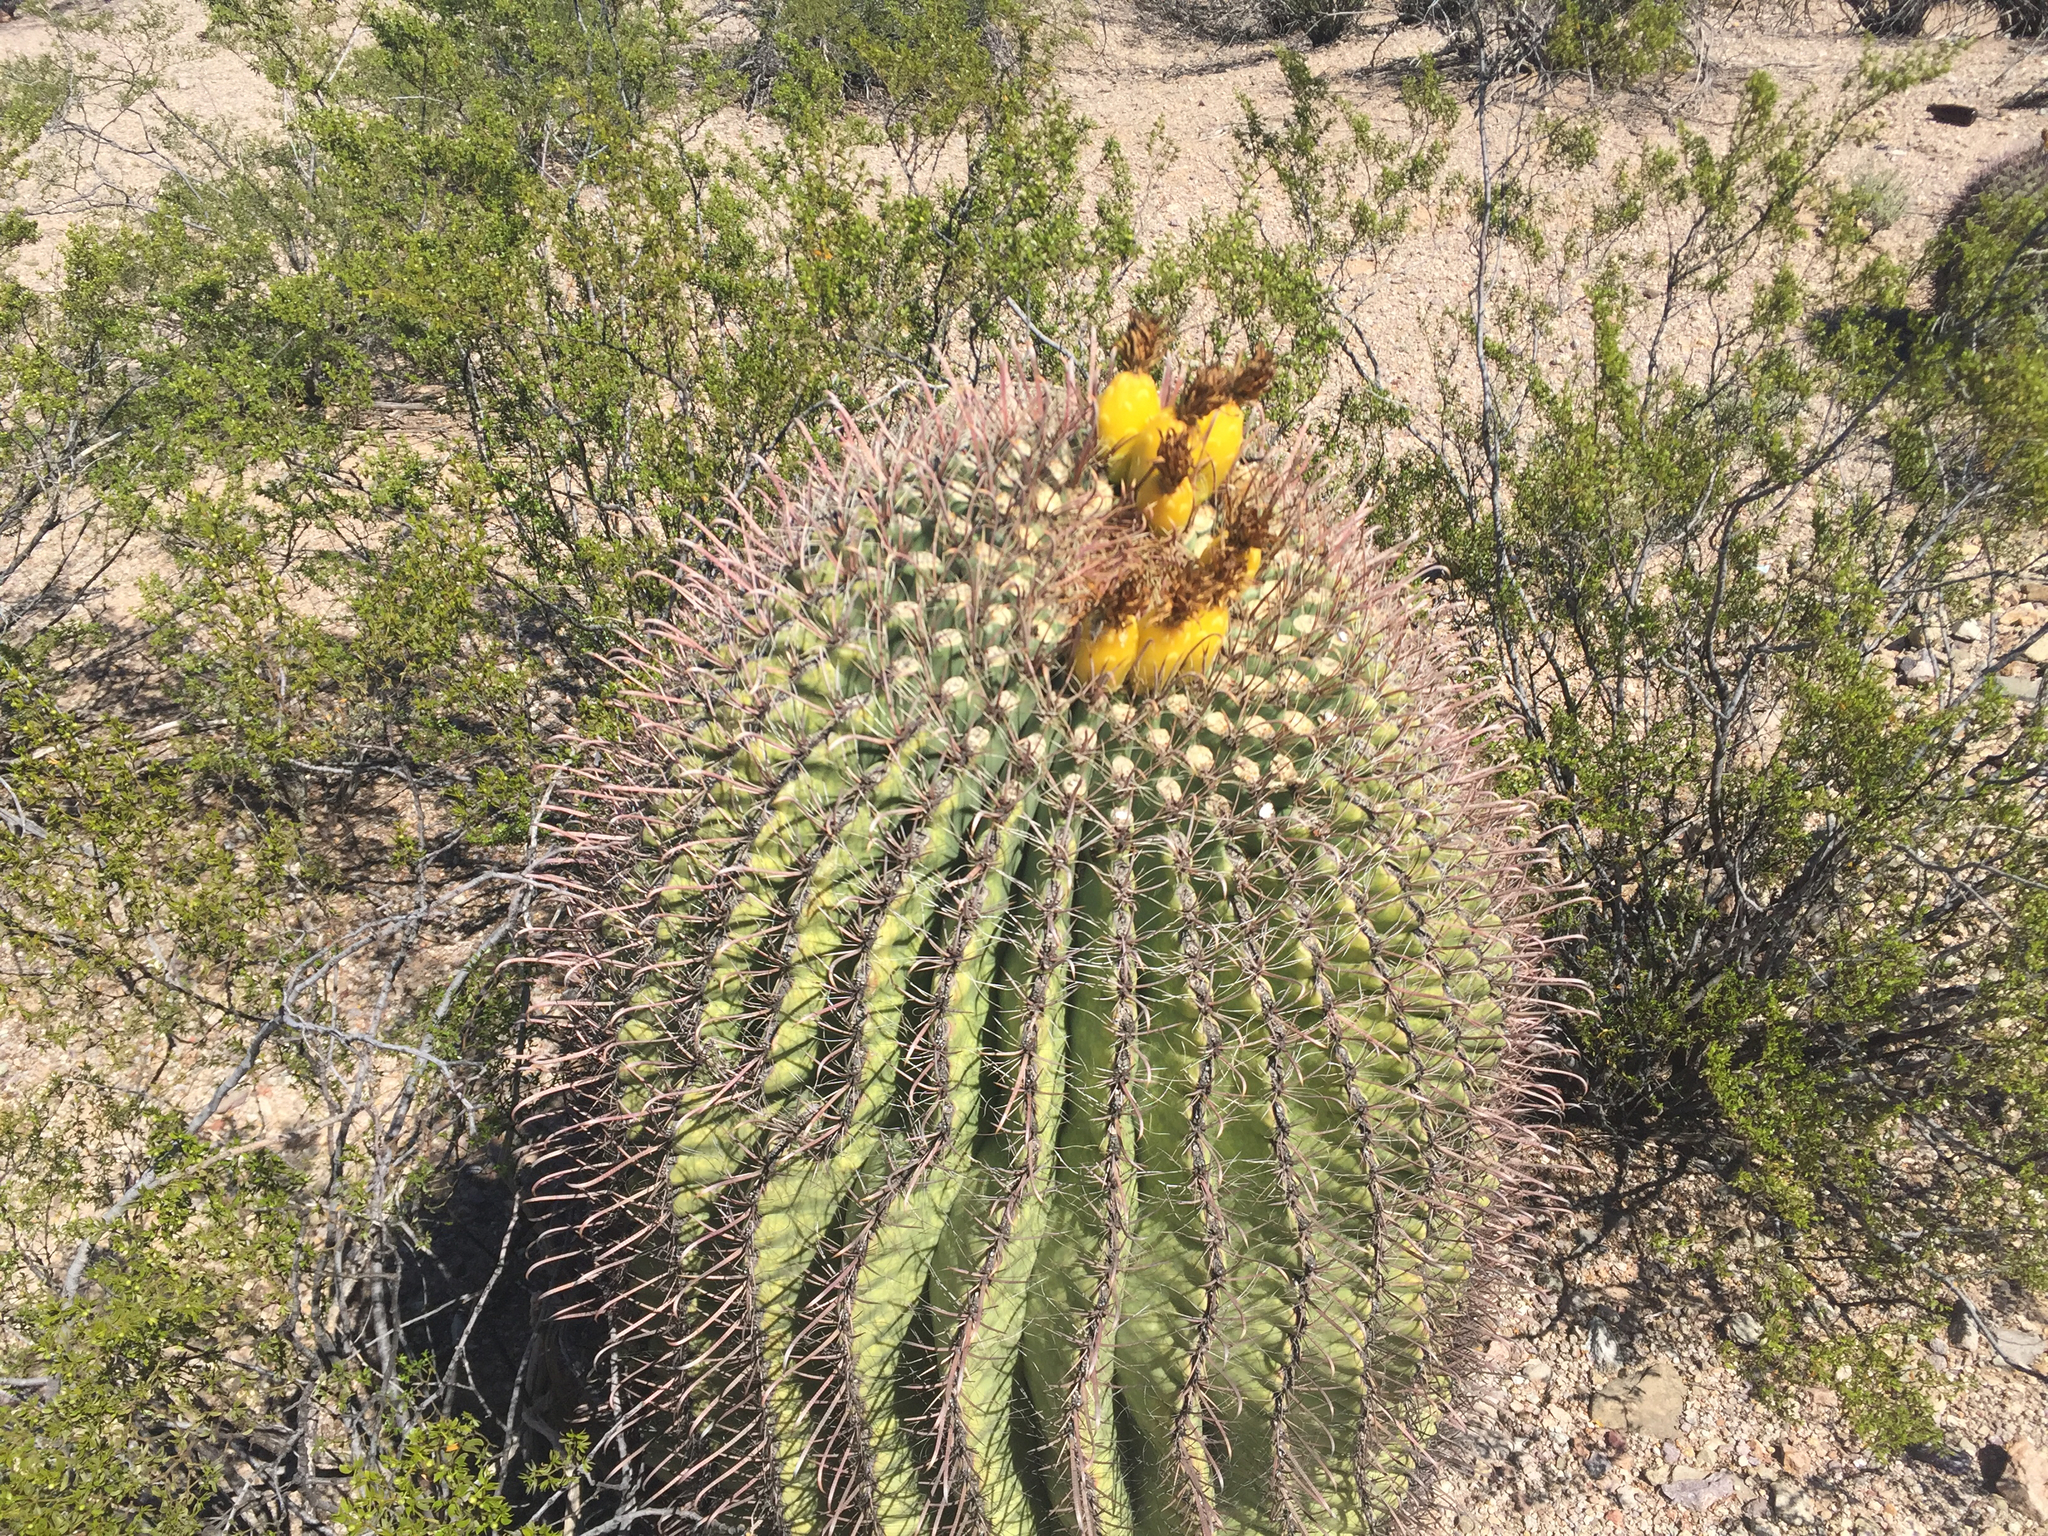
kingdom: Plantae
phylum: Tracheophyta
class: Magnoliopsida
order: Caryophyllales
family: Cactaceae
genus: Ferocactus
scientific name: Ferocactus wislizeni
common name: Candy barrel cactus
